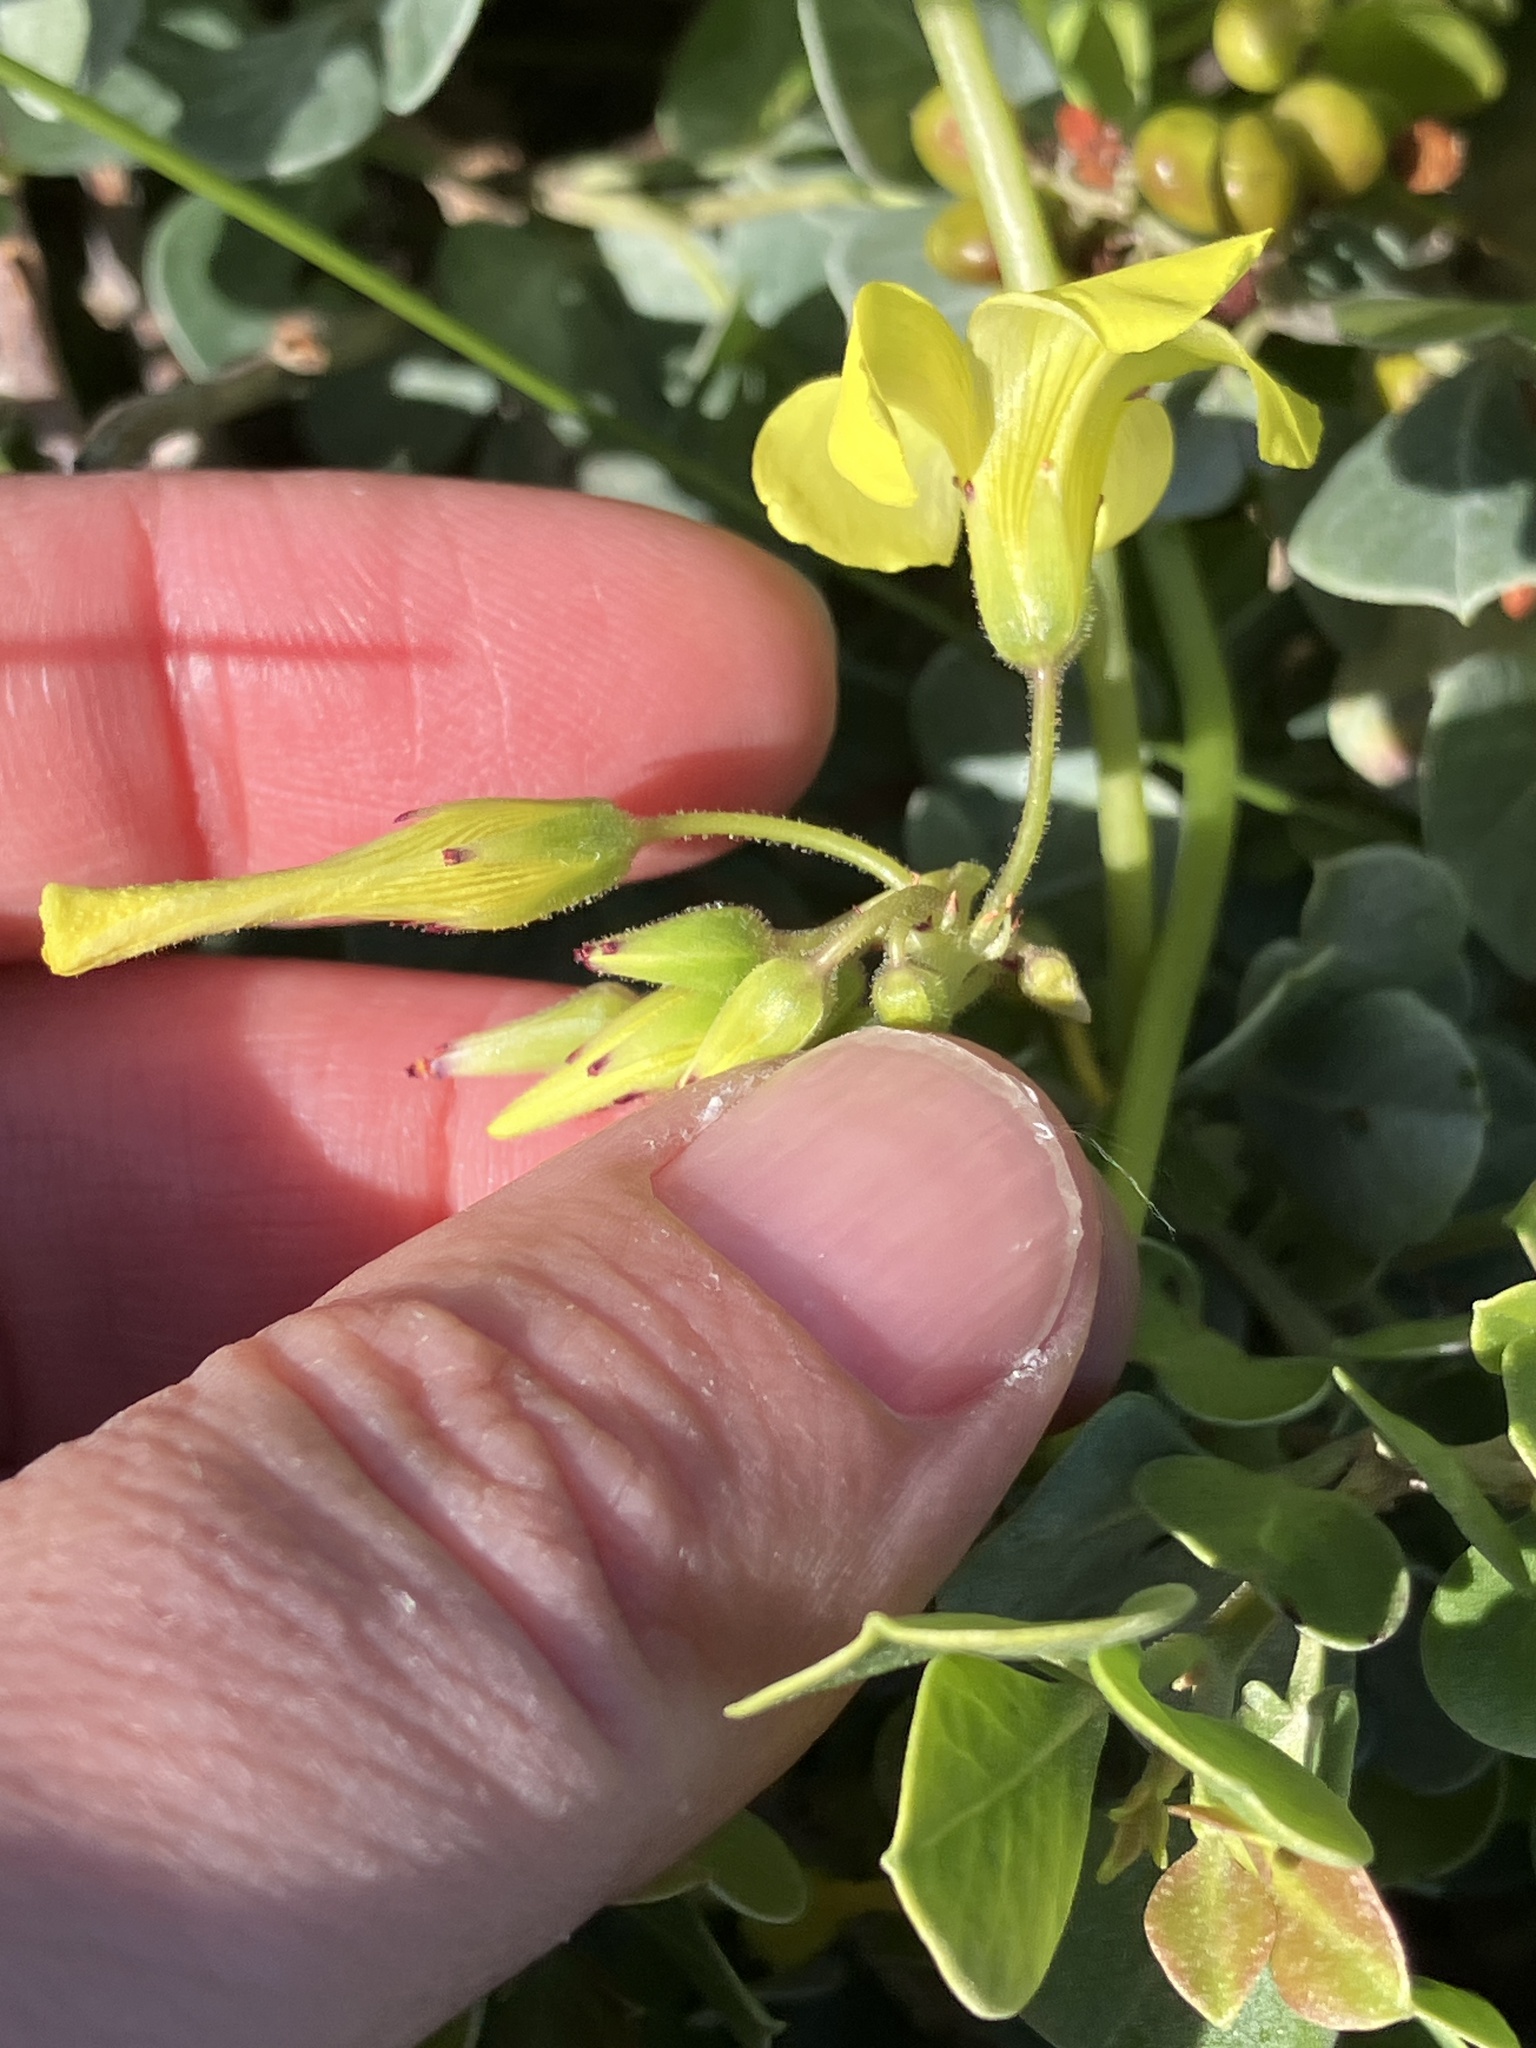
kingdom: Plantae
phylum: Tracheophyta
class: Magnoliopsida
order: Oxalidales
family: Oxalidaceae
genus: Oxalis
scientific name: Oxalis pes-caprae
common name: Bermuda-buttercup
